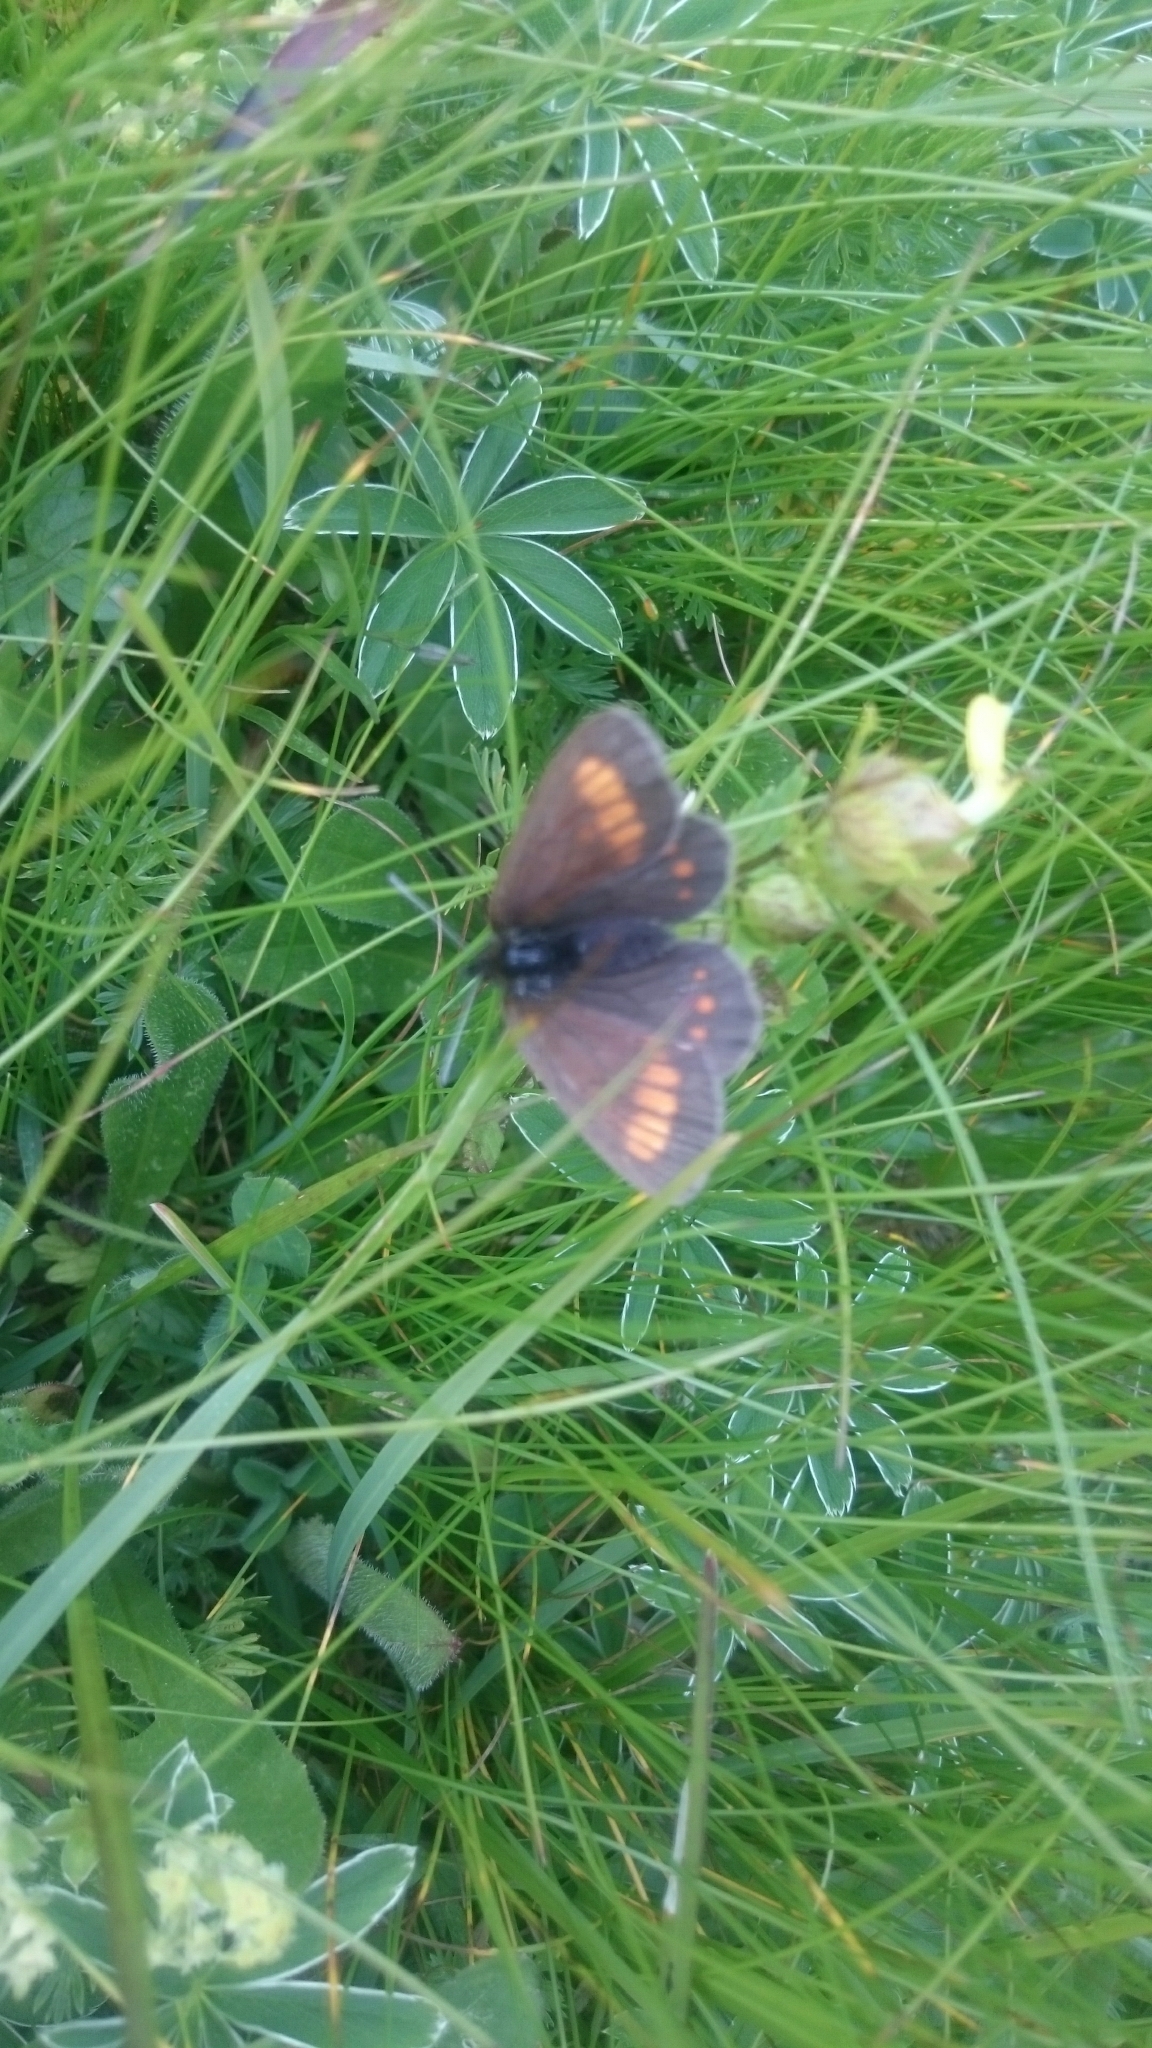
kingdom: Animalia
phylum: Arthropoda
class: Insecta
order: Lepidoptera
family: Nymphalidae
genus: Erebia
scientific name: Erebia pharte
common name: Blind ringlet
